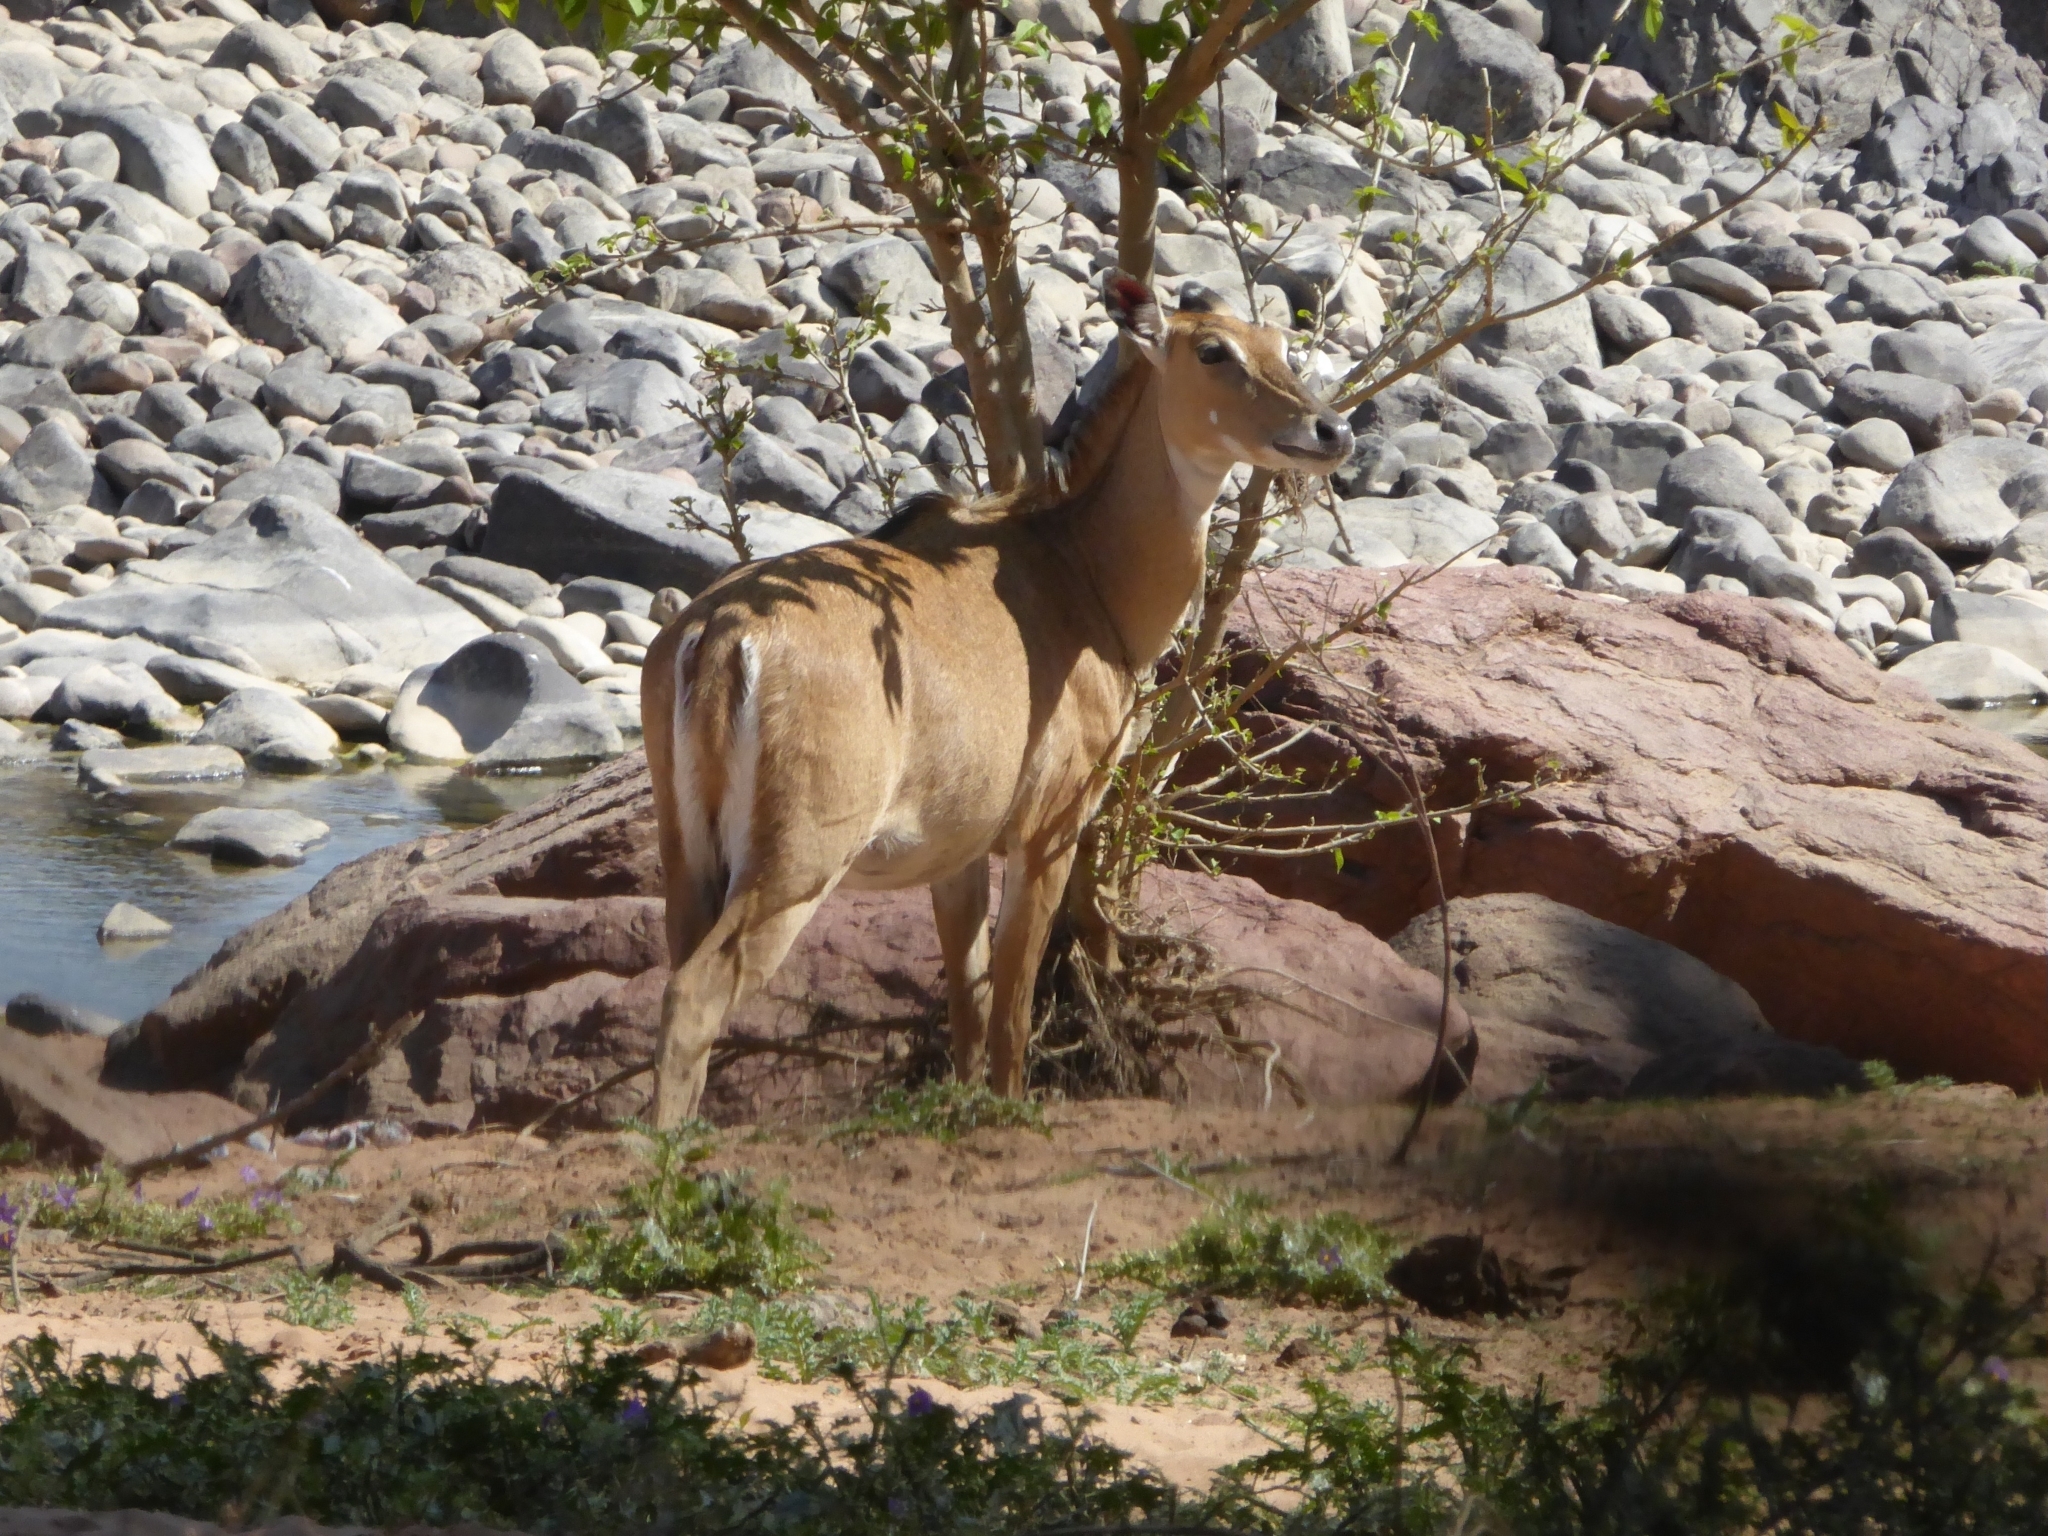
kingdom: Animalia
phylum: Chordata
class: Mammalia
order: Artiodactyla
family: Bovidae
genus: Boselaphus
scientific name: Boselaphus tragocamelus
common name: Nilgai
